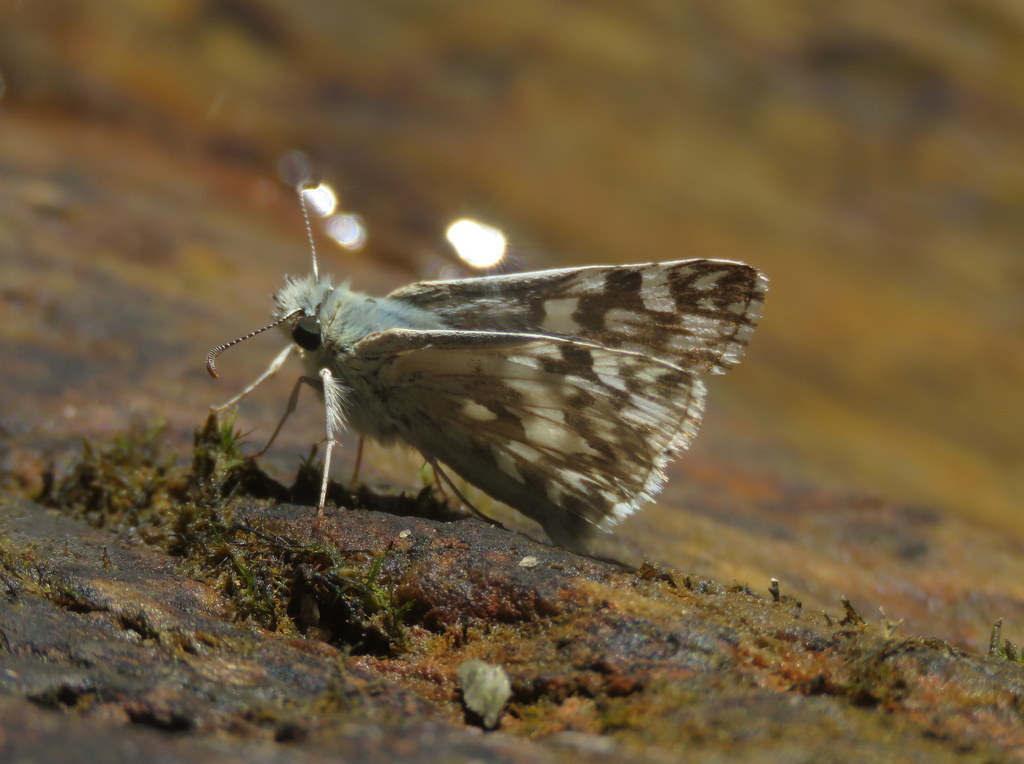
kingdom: Animalia
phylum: Arthropoda
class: Insecta
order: Lepidoptera
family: Hesperiidae
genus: Heliopetes
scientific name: Heliopetes americanus
